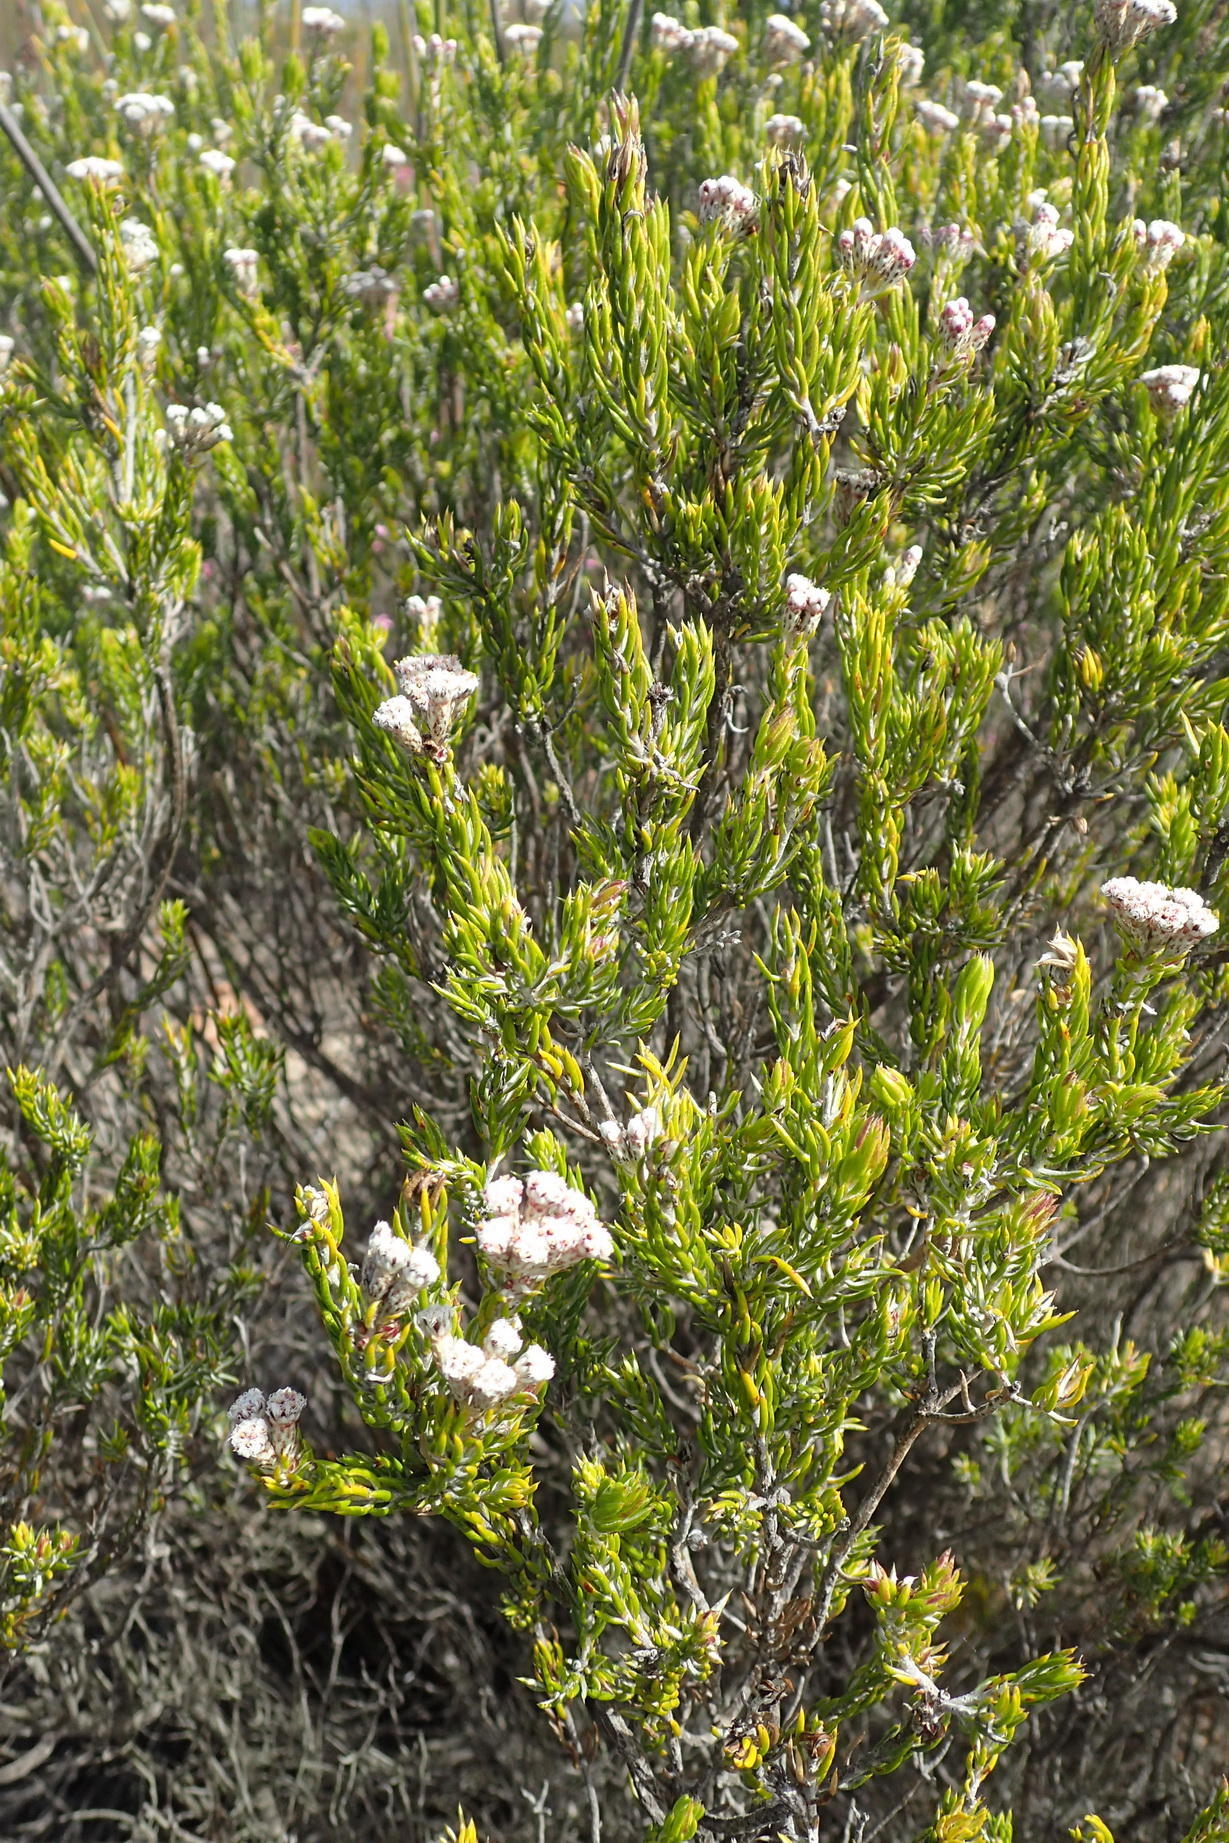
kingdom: Plantae
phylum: Tracheophyta
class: Magnoliopsida
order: Asterales
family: Asteraceae
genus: Metalasia
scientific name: Metalasia pallida
